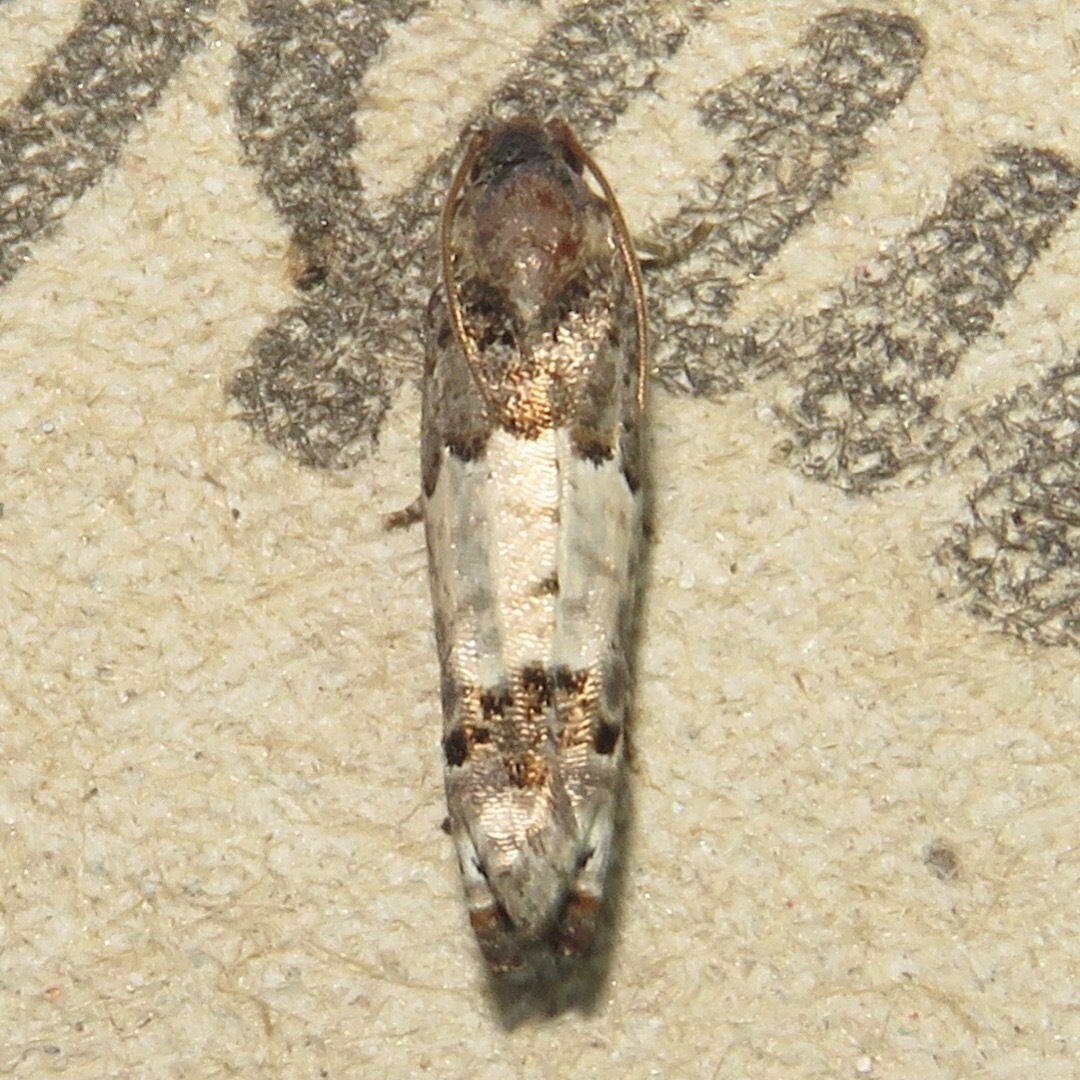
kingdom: Animalia
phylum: Arthropoda
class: Insecta
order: Lepidoptera
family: Tortricidae
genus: Epiblema
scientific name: Epiblema carolinana
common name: Gray-blotched epiblema moth
